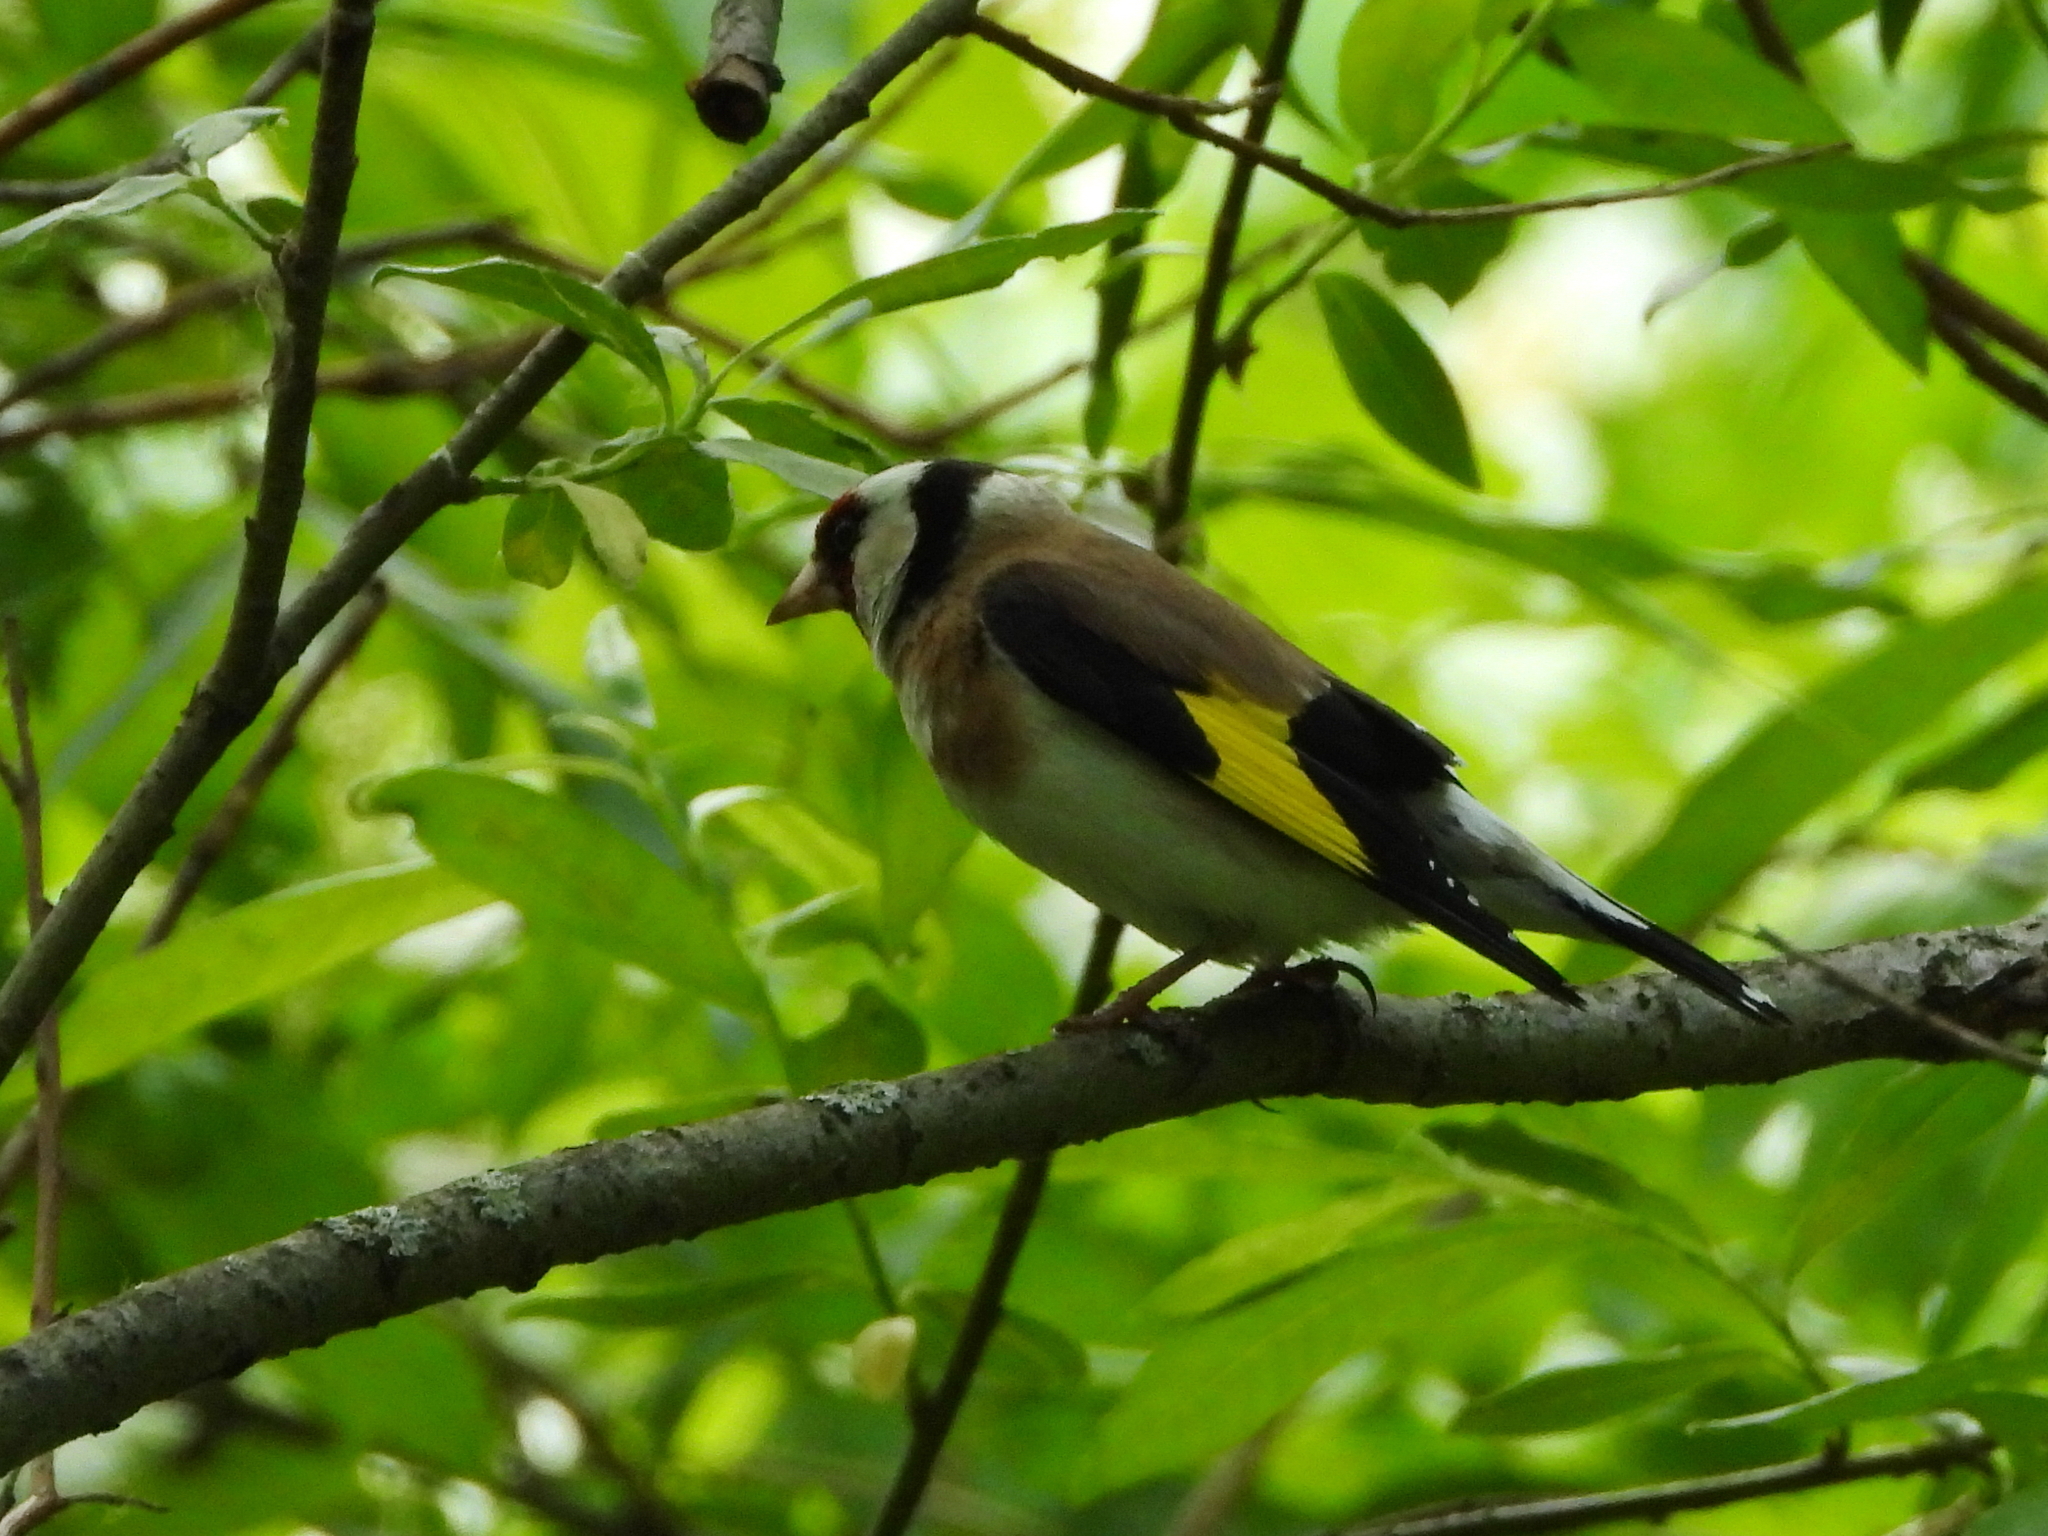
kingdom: Animalia
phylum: Chordata
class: Aves
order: Passeriformes
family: Fringillidae
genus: Carduelis
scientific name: Carduelis carduelis
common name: European goldfinch
